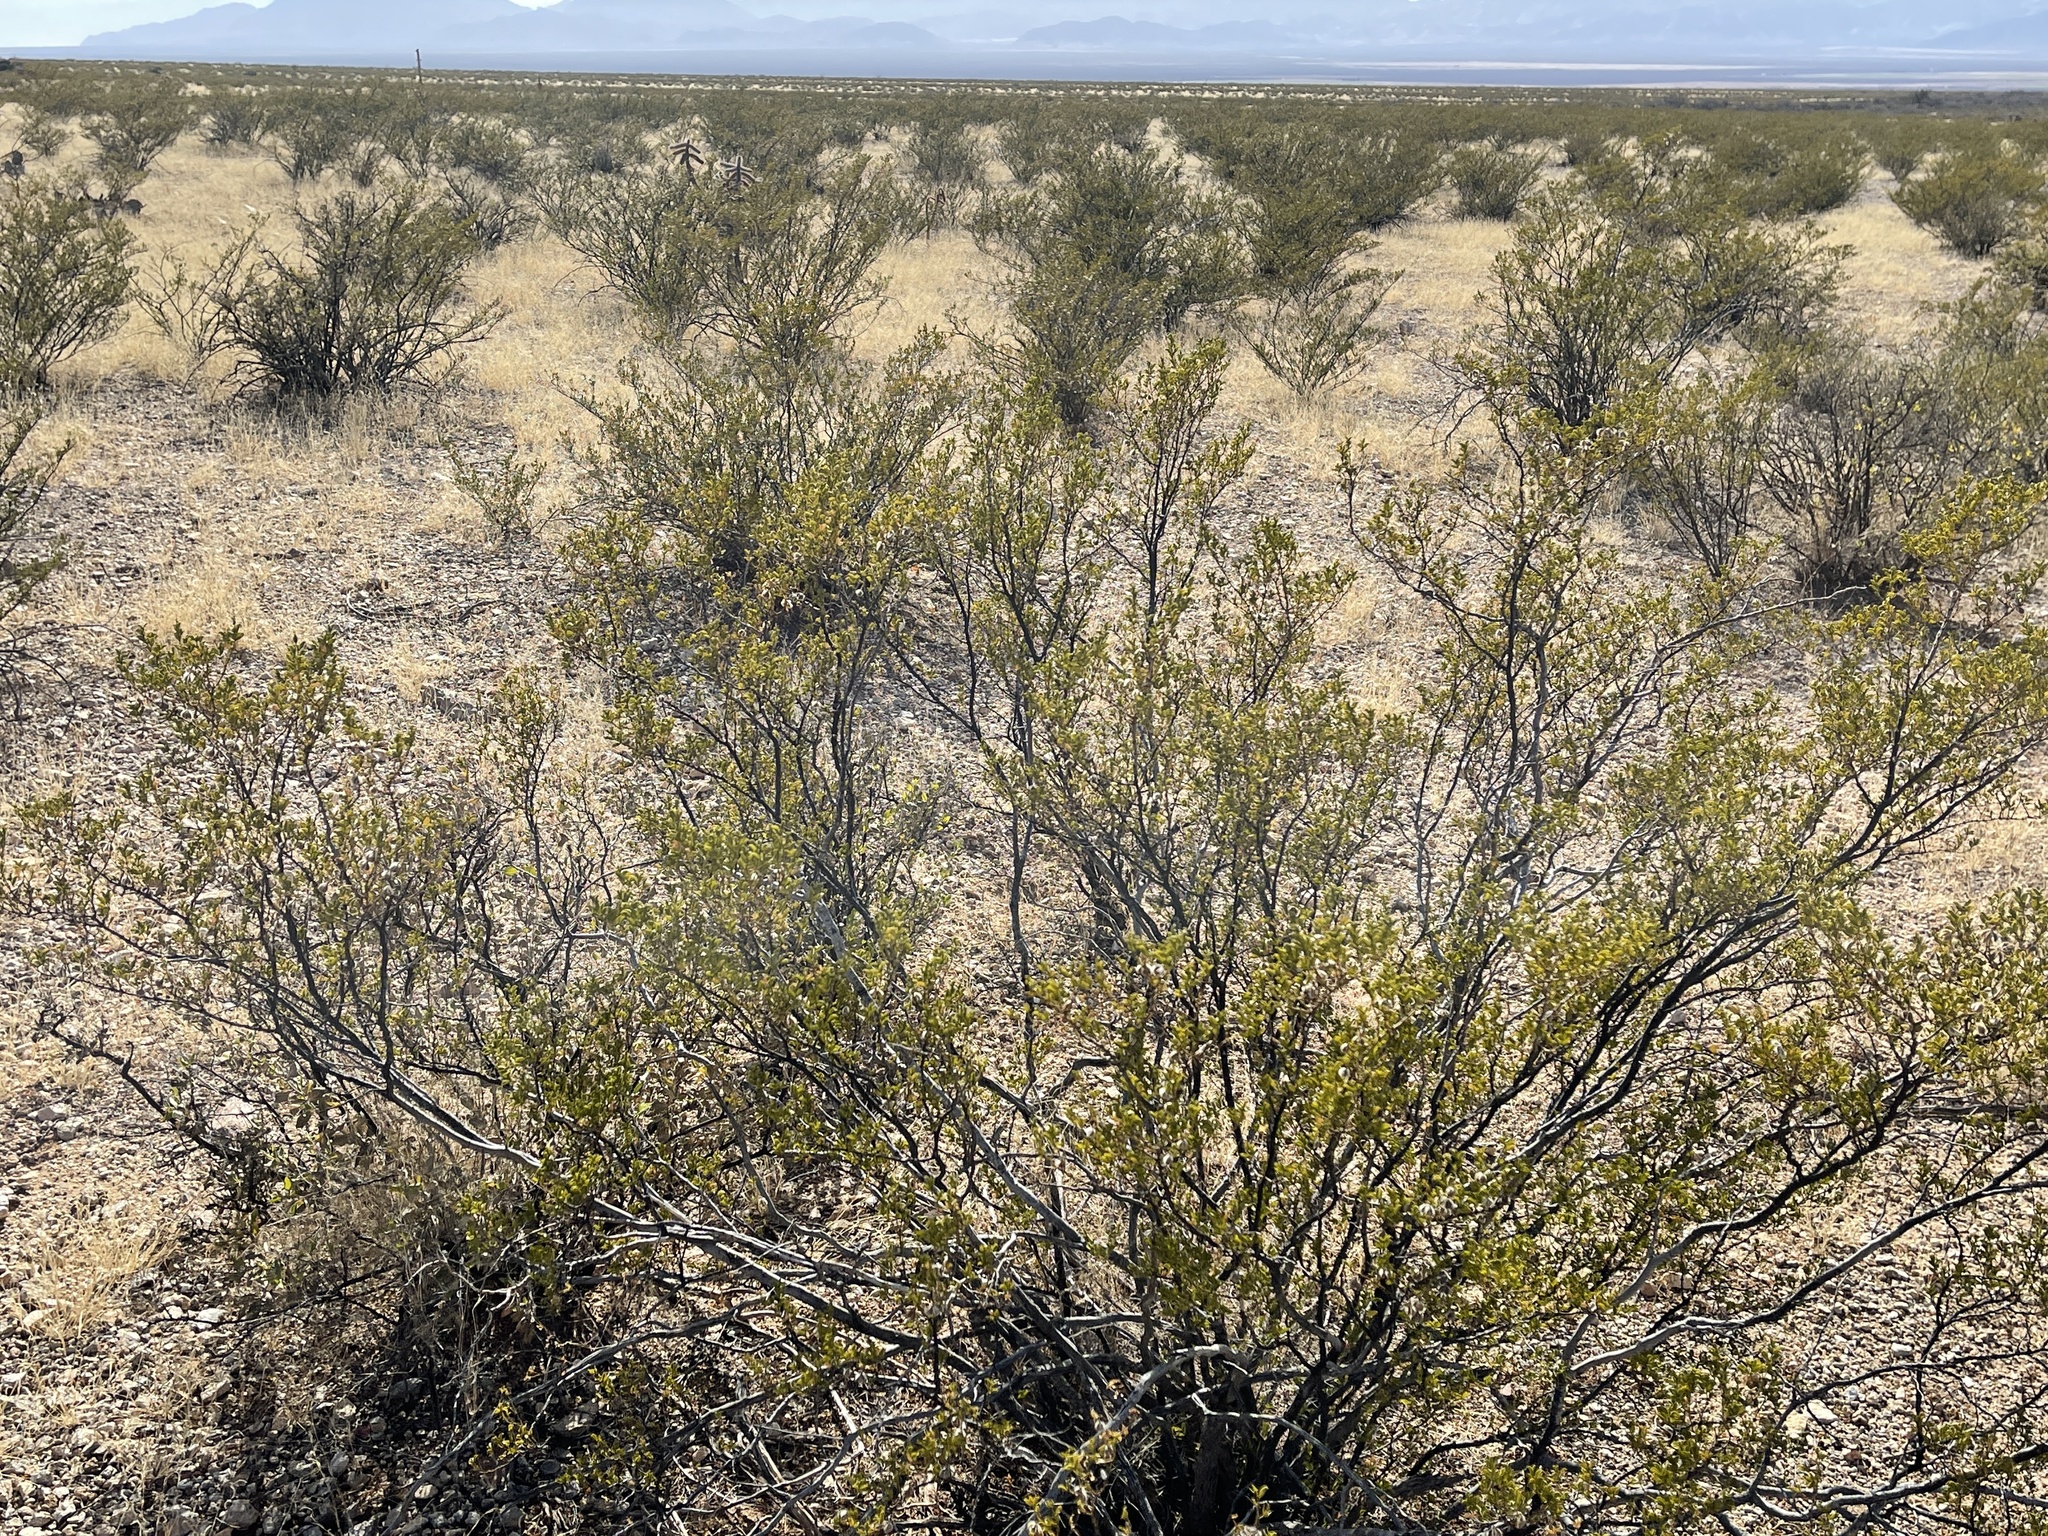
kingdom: Plantae
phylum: Tracheophyta
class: Magnoliopsida
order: Zygophyllales
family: Zygophyllaceae
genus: Larrea
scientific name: Larrea tridentata
